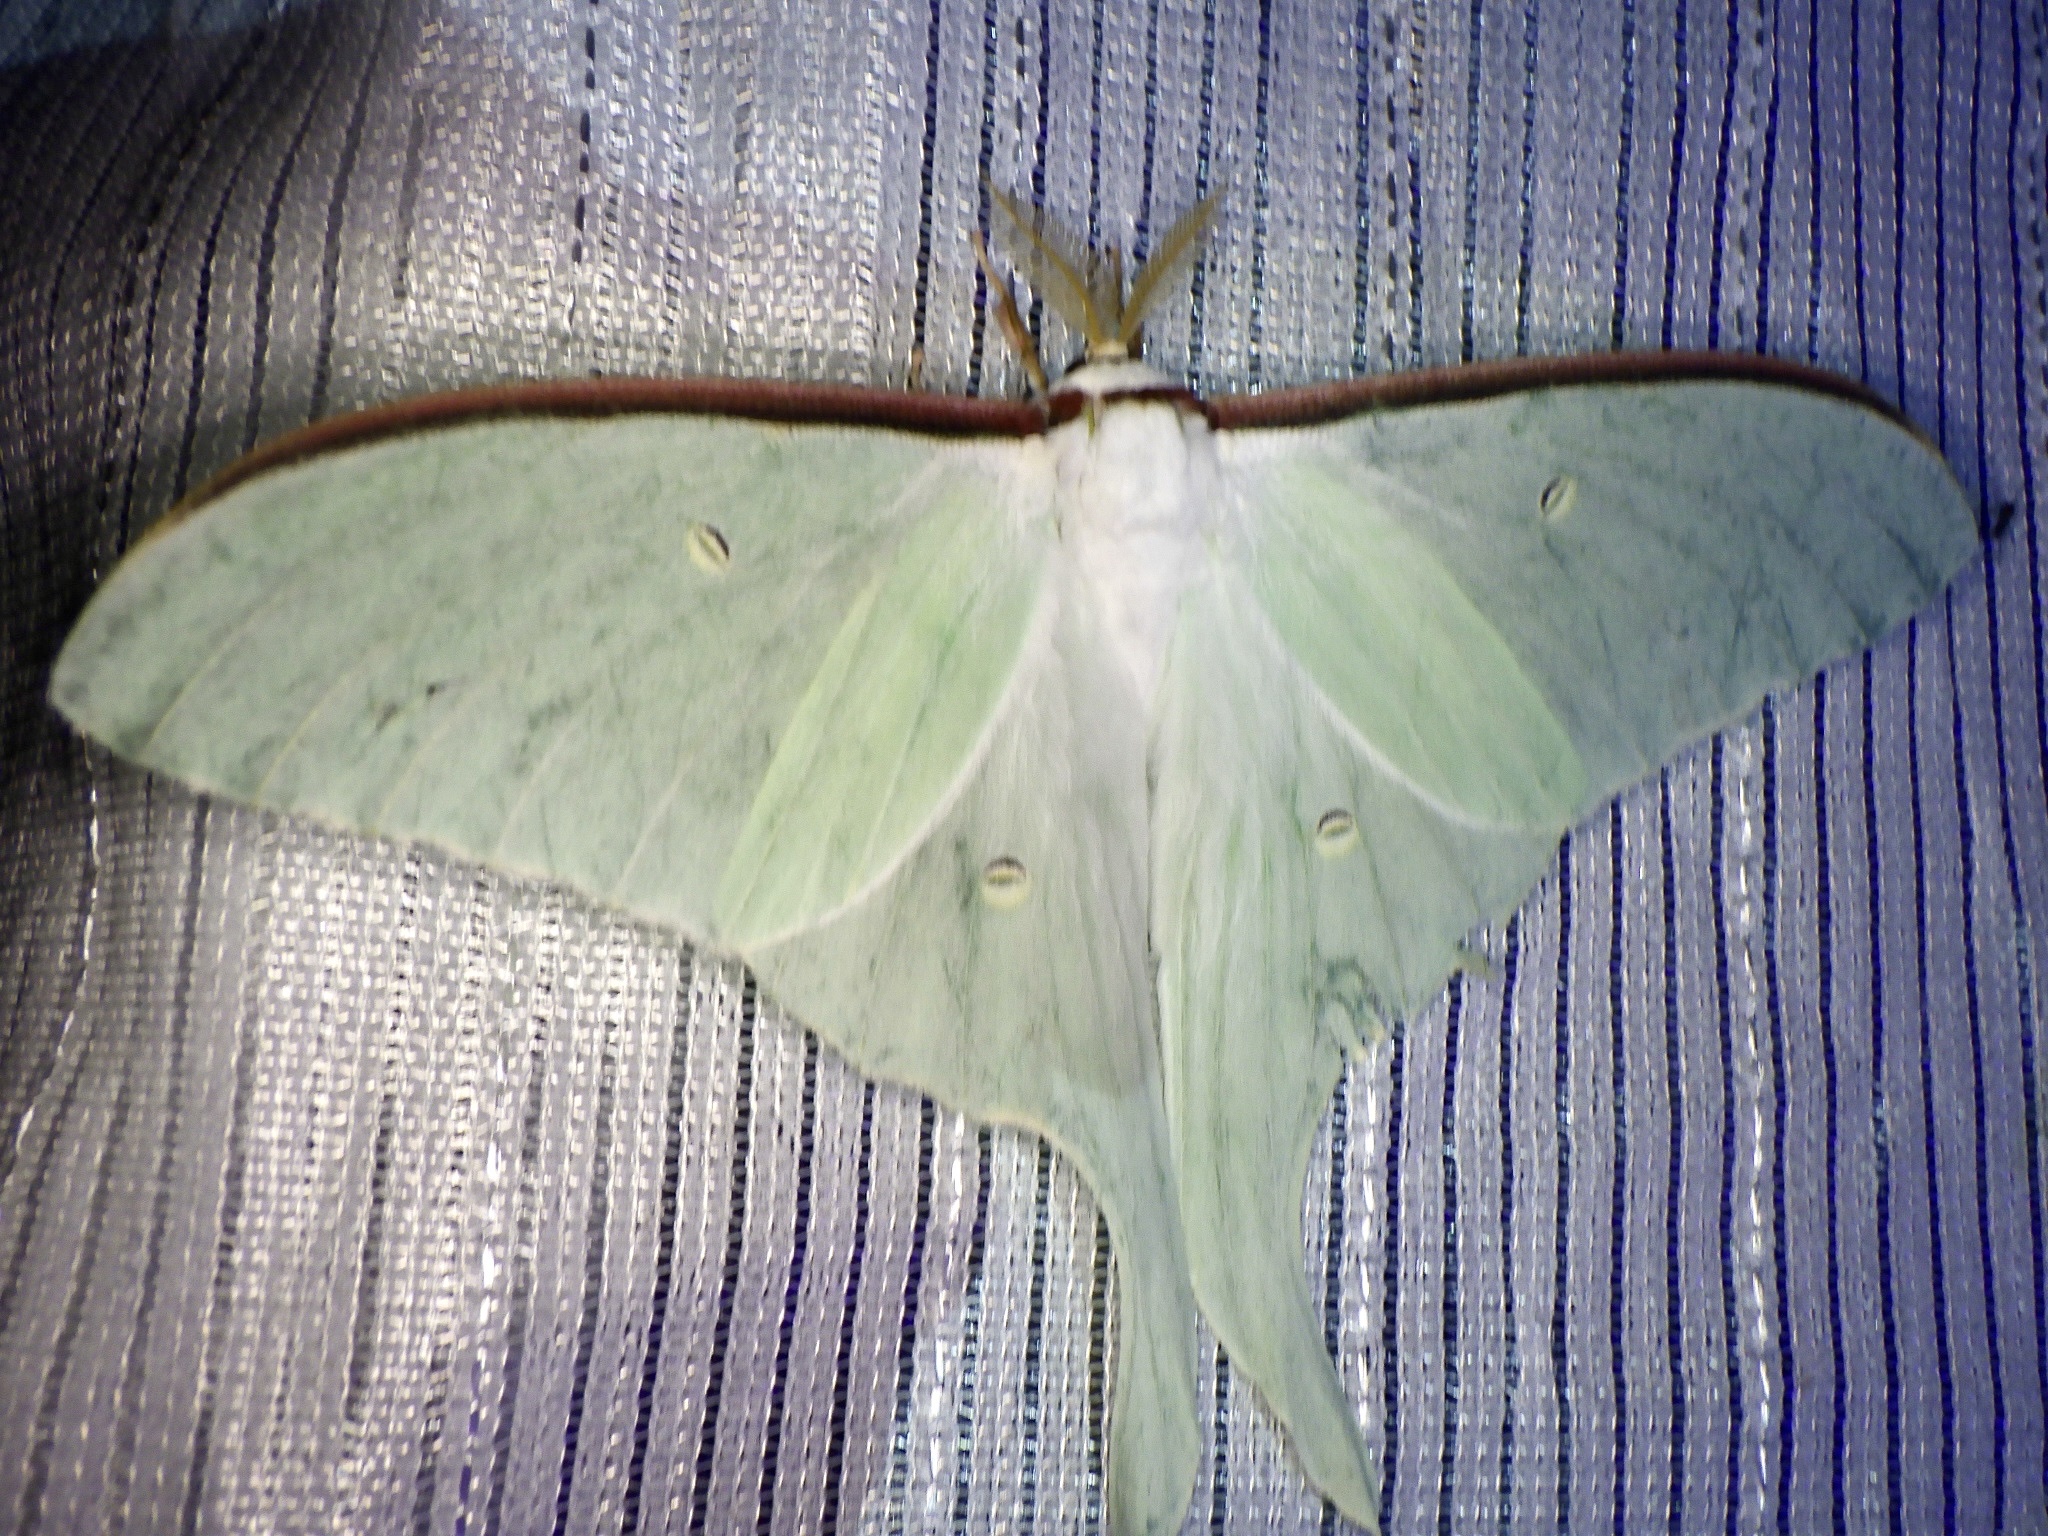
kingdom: Animalia
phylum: Arthropoda
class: Insecta
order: Lepidoptera
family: Saturniidae
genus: Actias
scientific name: Actias aliena
